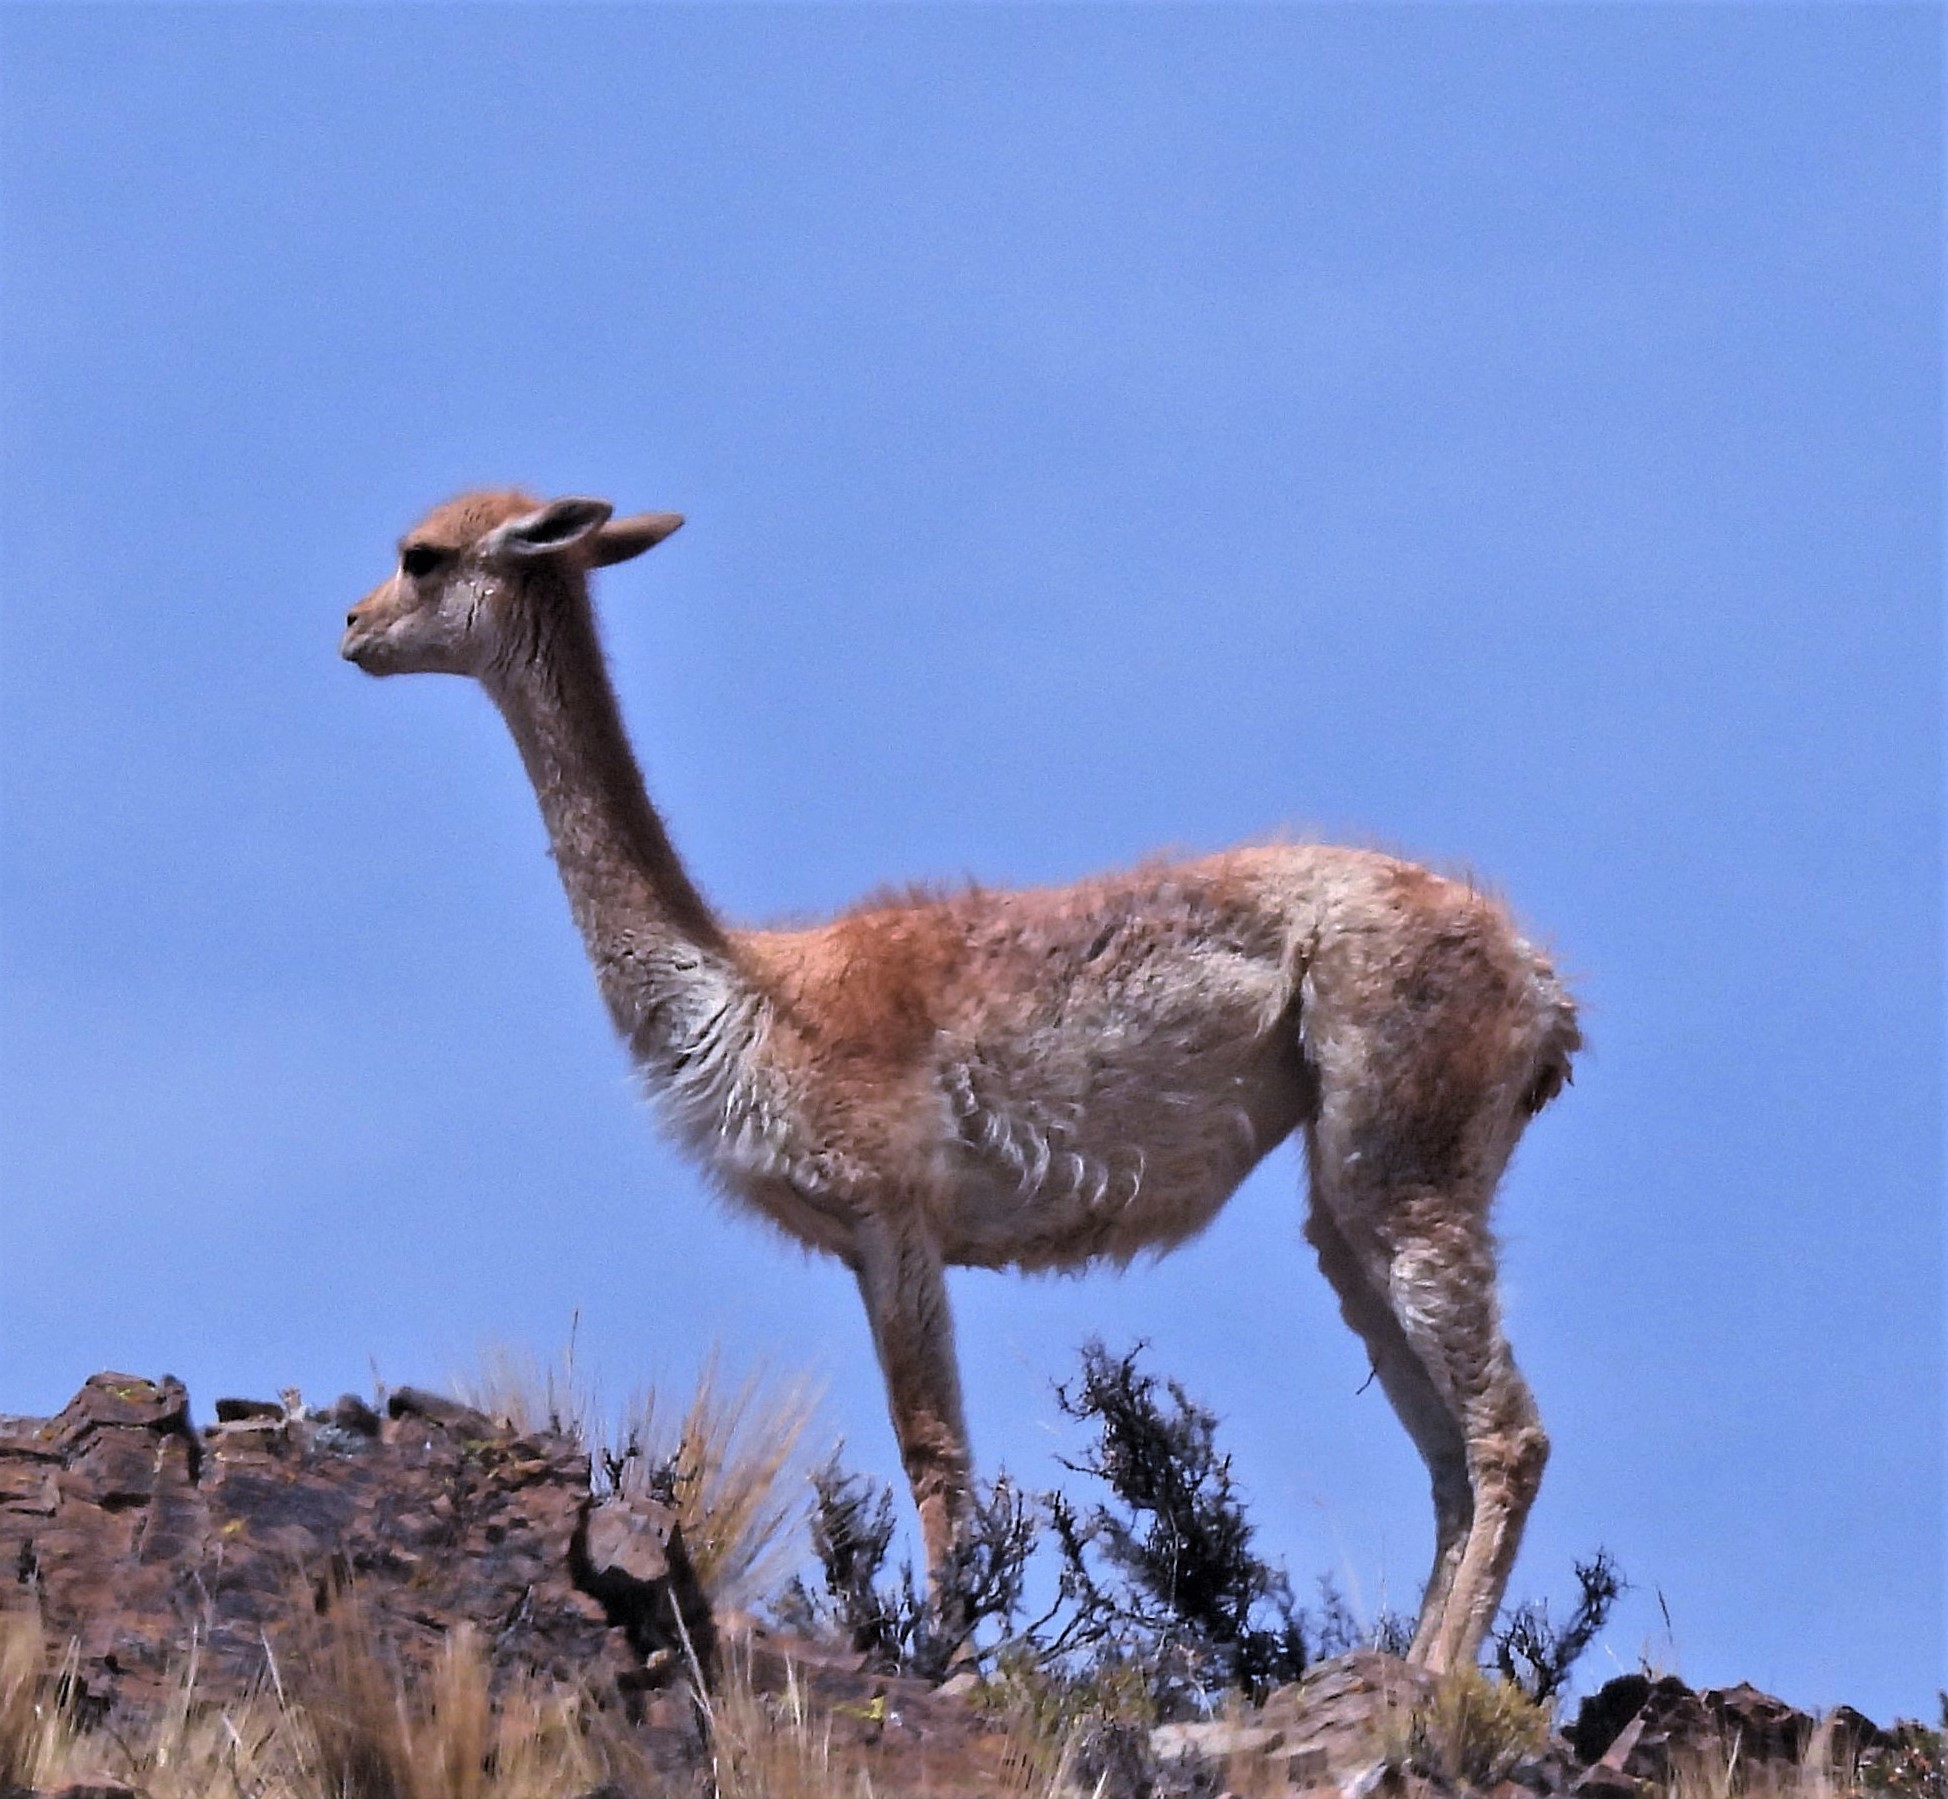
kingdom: Animalia
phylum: Chordata
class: Mammalia
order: Artiodactyla
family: Camelidae
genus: Vicugna
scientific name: Vicugna vicugna
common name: Vicugna
